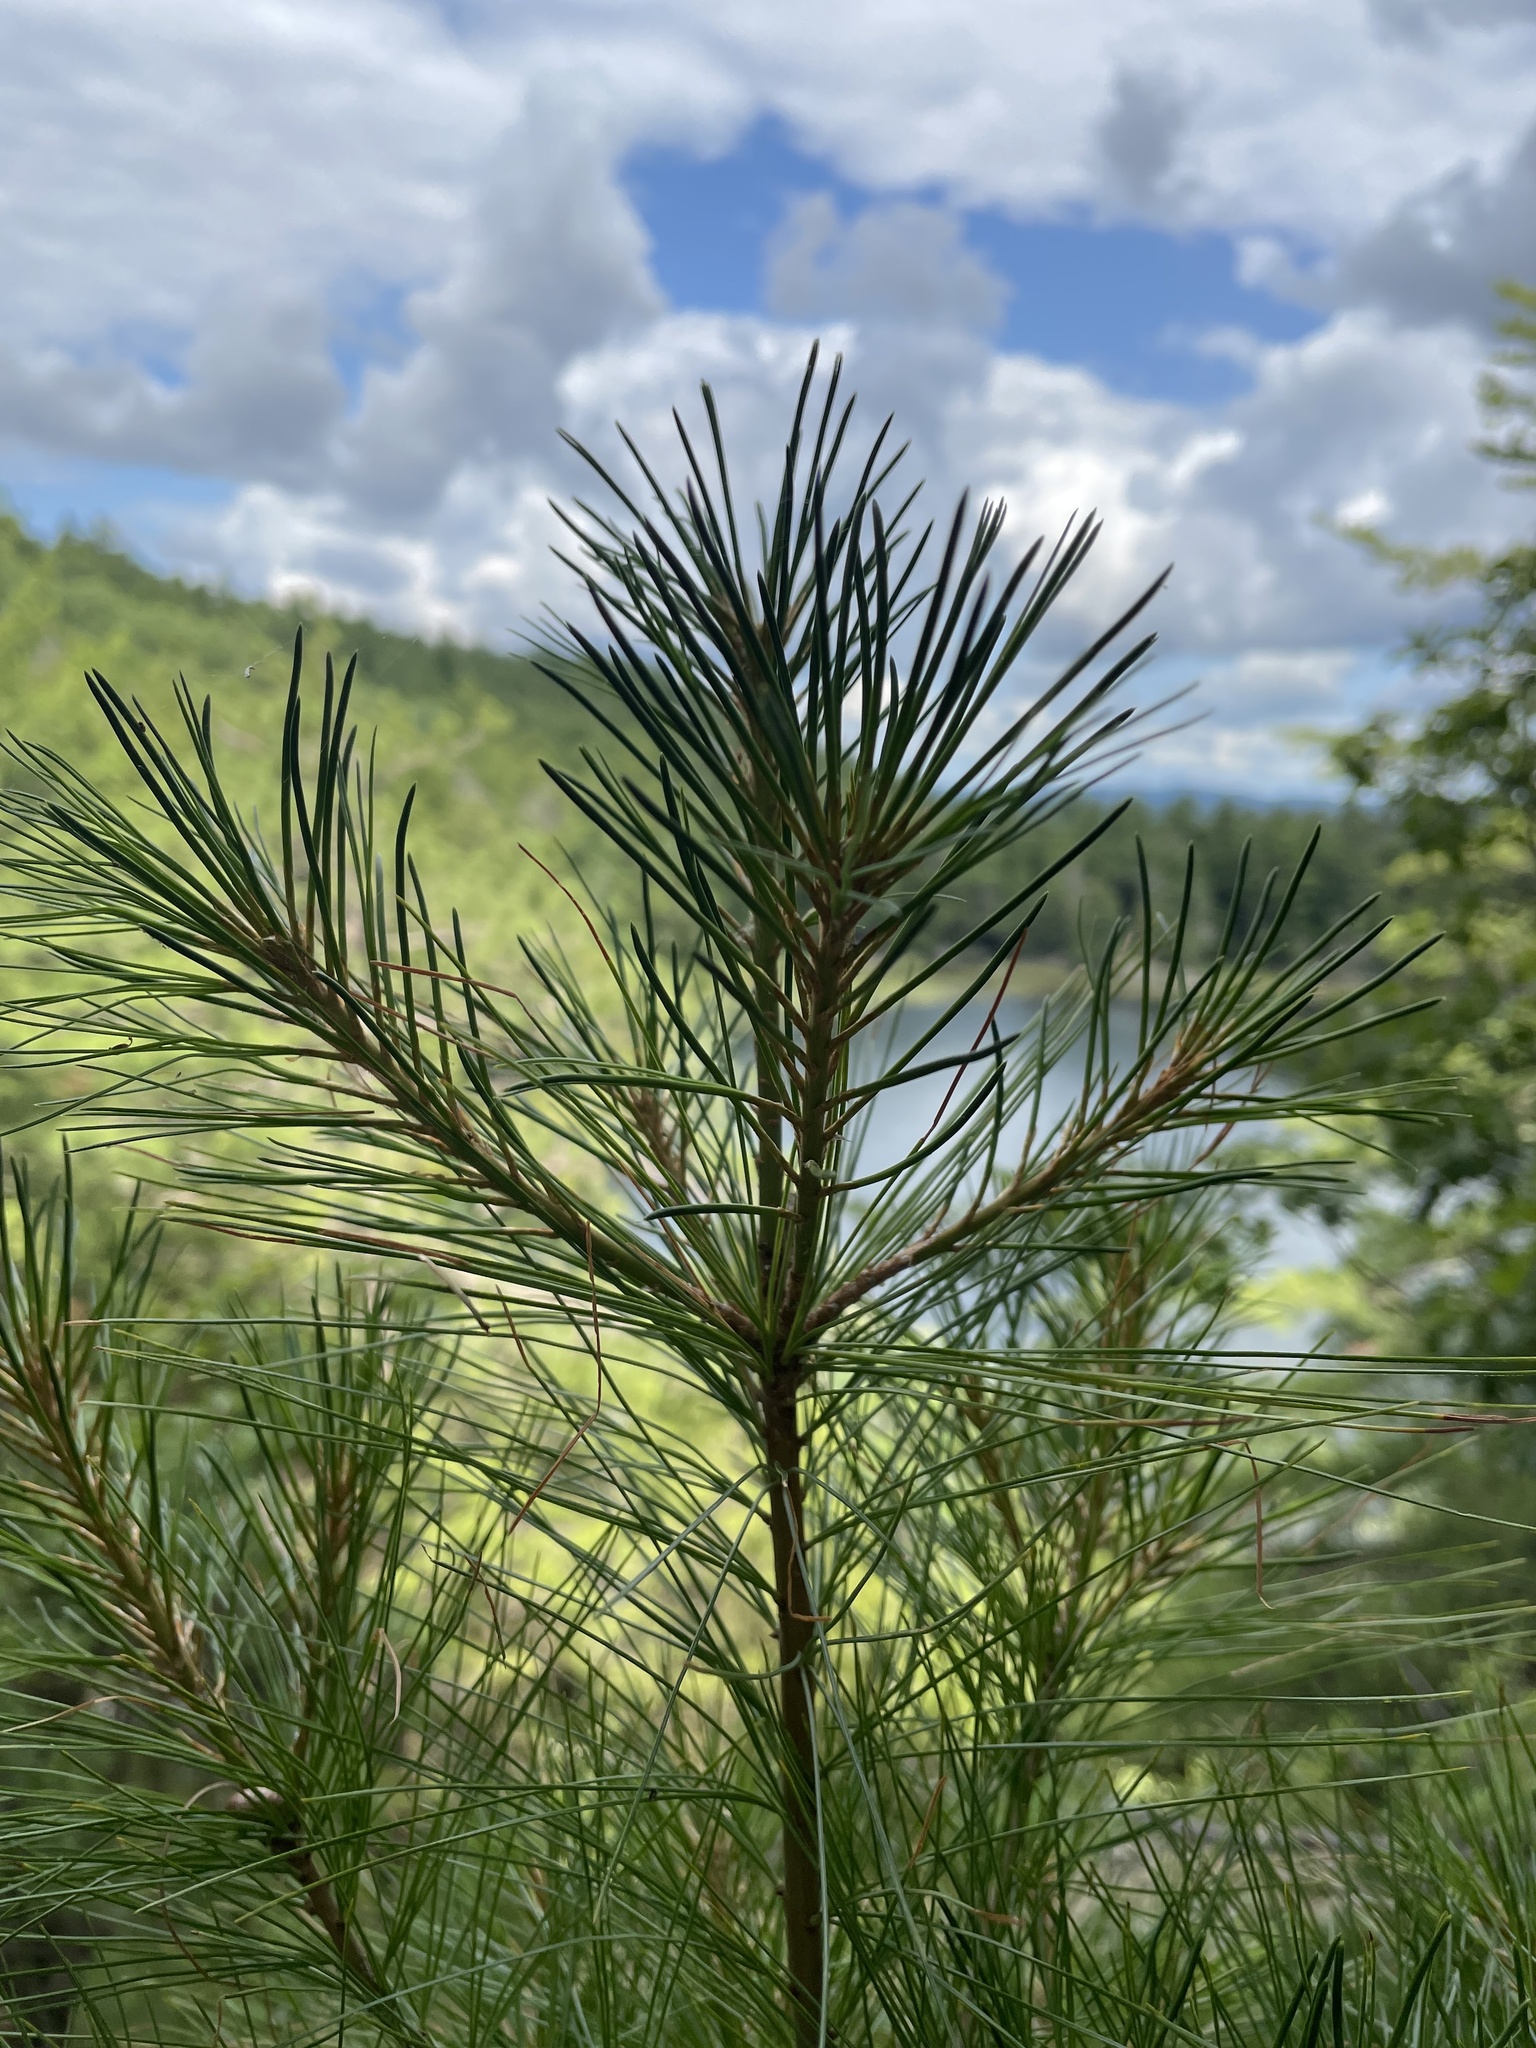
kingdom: Plantae
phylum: Tracheophyta
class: Pinopsida
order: Pinales
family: Pinaceae
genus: Pinus
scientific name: Pinus strobus
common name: Weymouth pine
